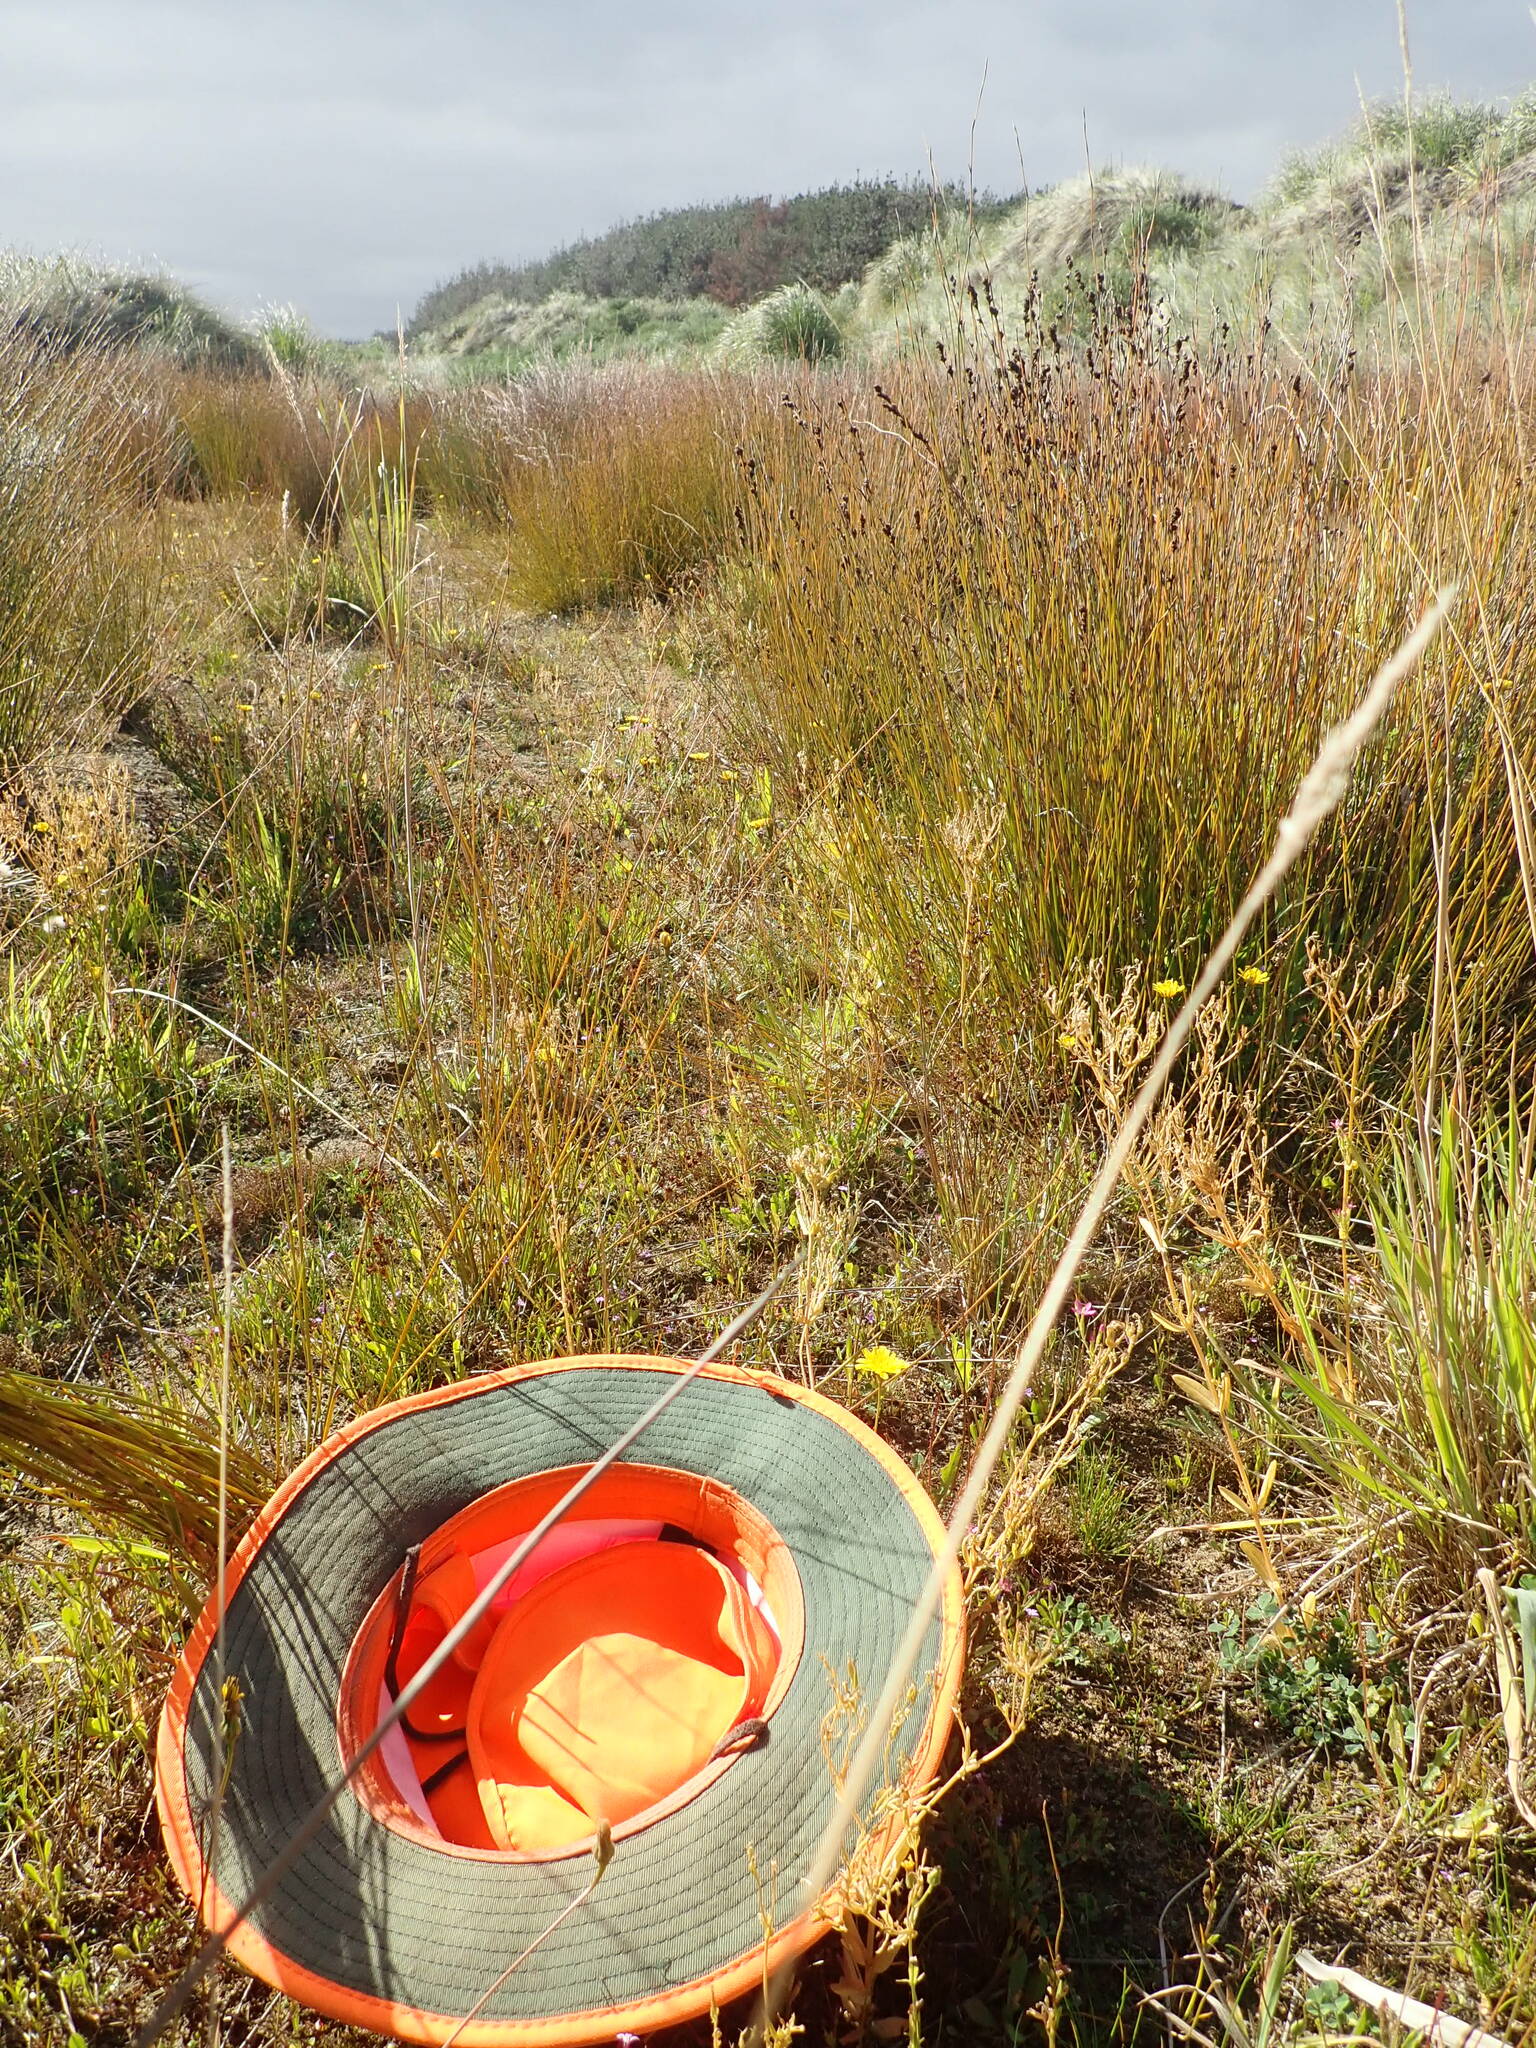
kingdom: Plantae
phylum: Tracheophyta
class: Magnoliopsida
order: Gentianales
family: Gentianaceae
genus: Centaurium
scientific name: Centaurium erythraea
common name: Common centaury
